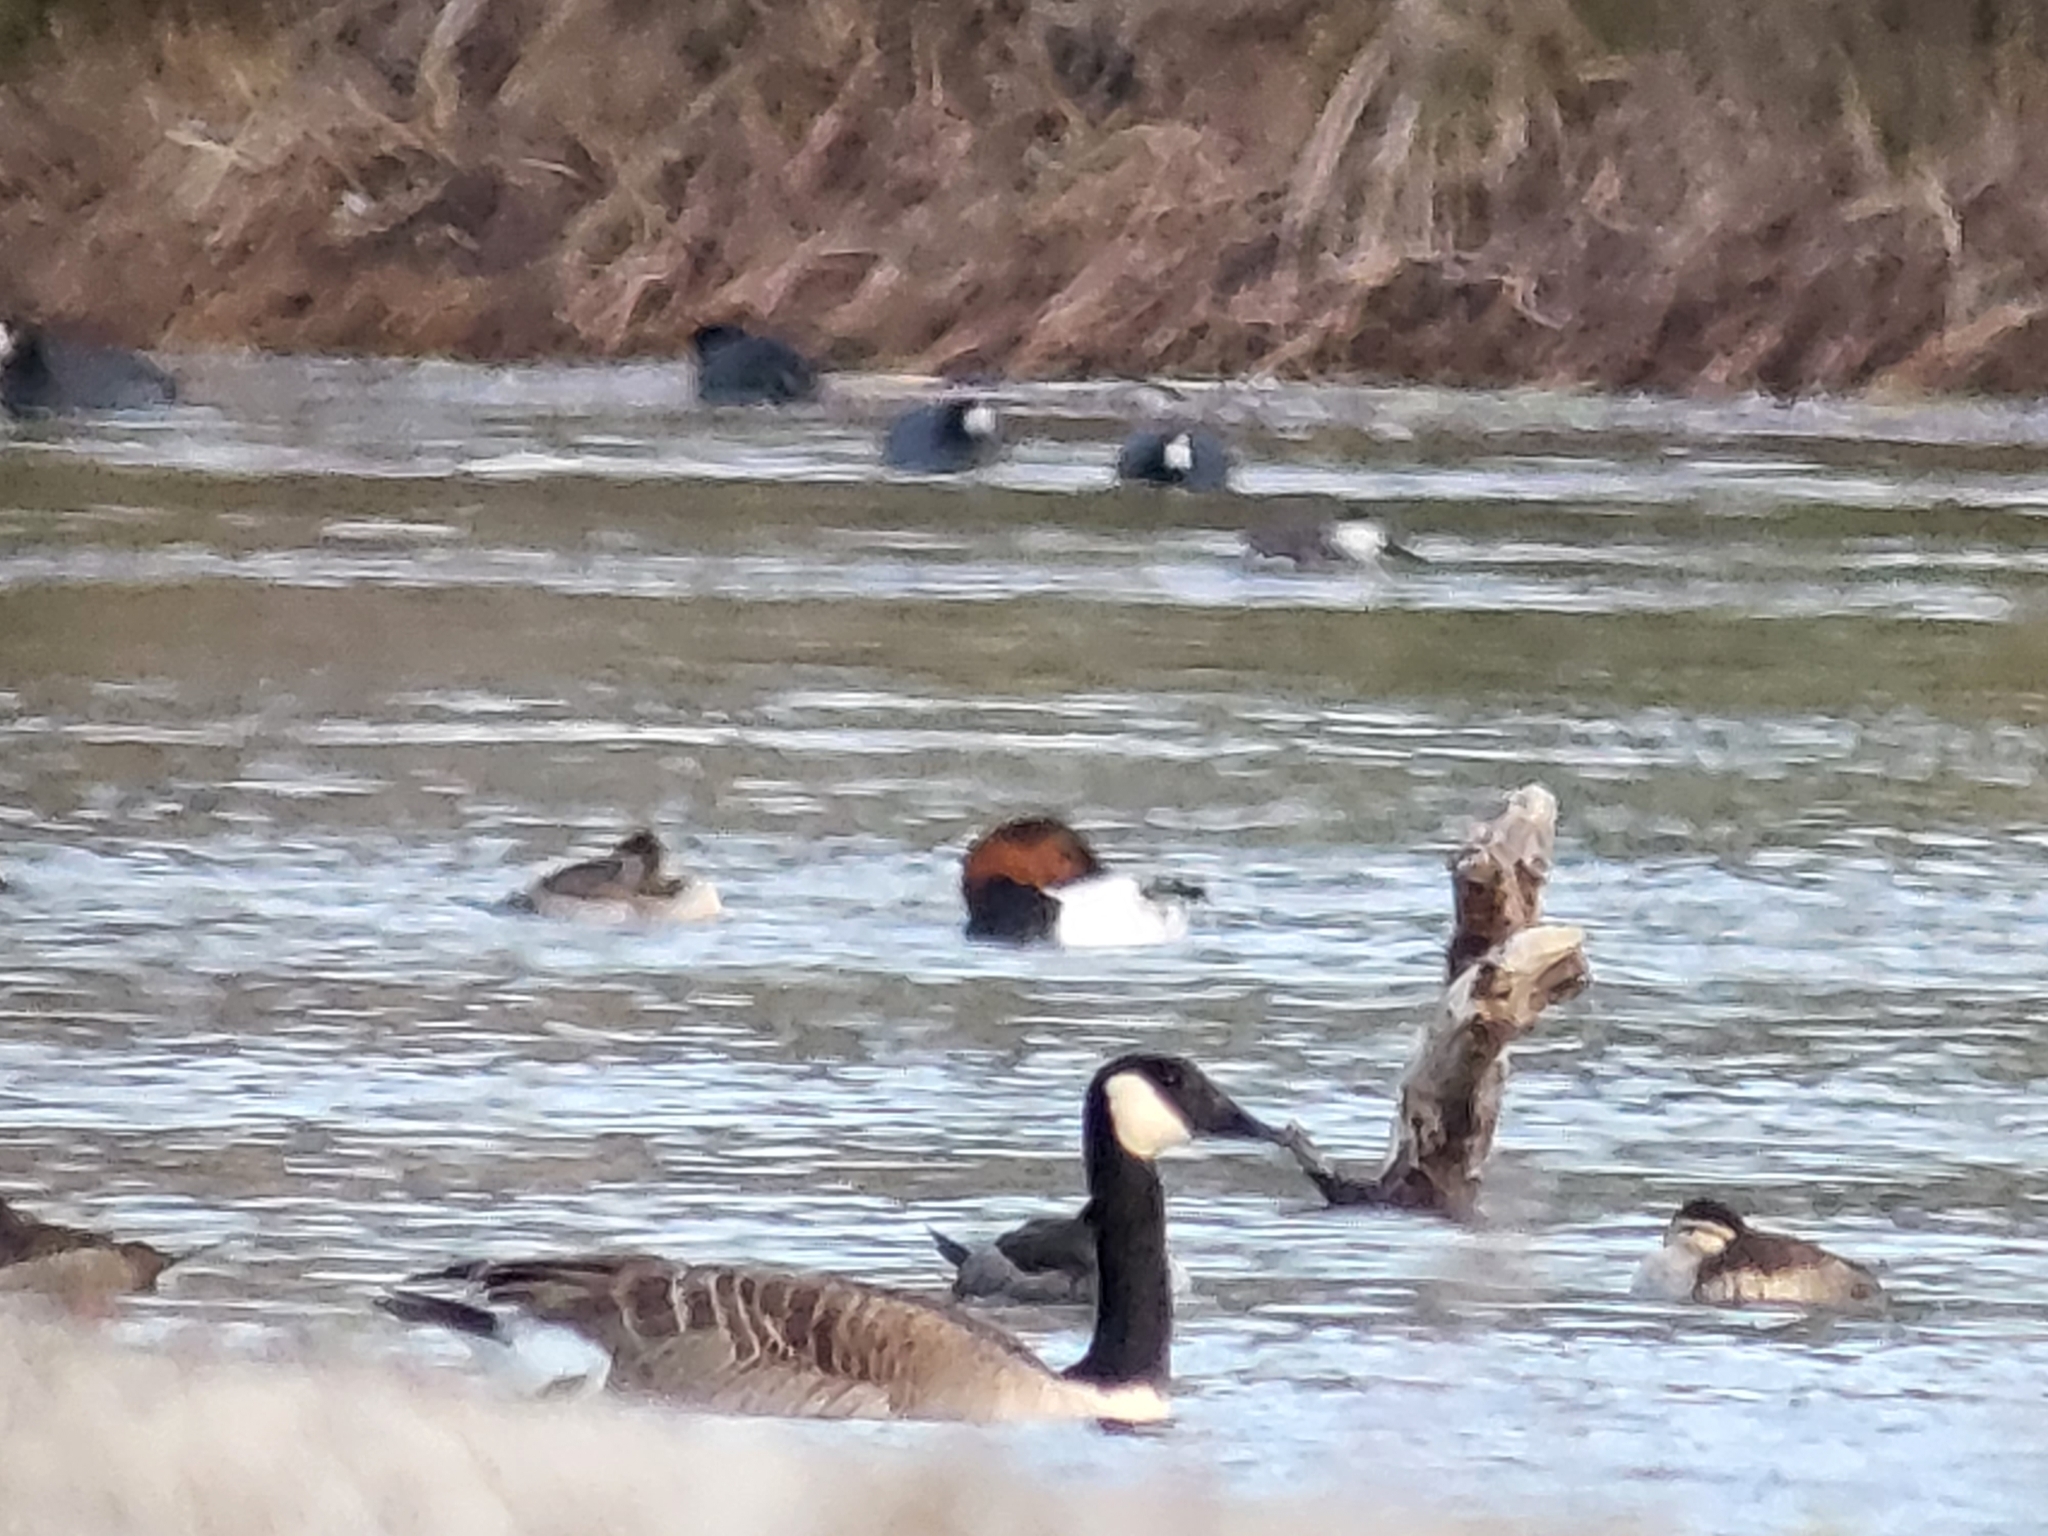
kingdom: Animalia
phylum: Chordata
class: Aves
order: Anseriformes
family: Anatidae
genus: Branta
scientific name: Branta canadensis
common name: Canada goose
